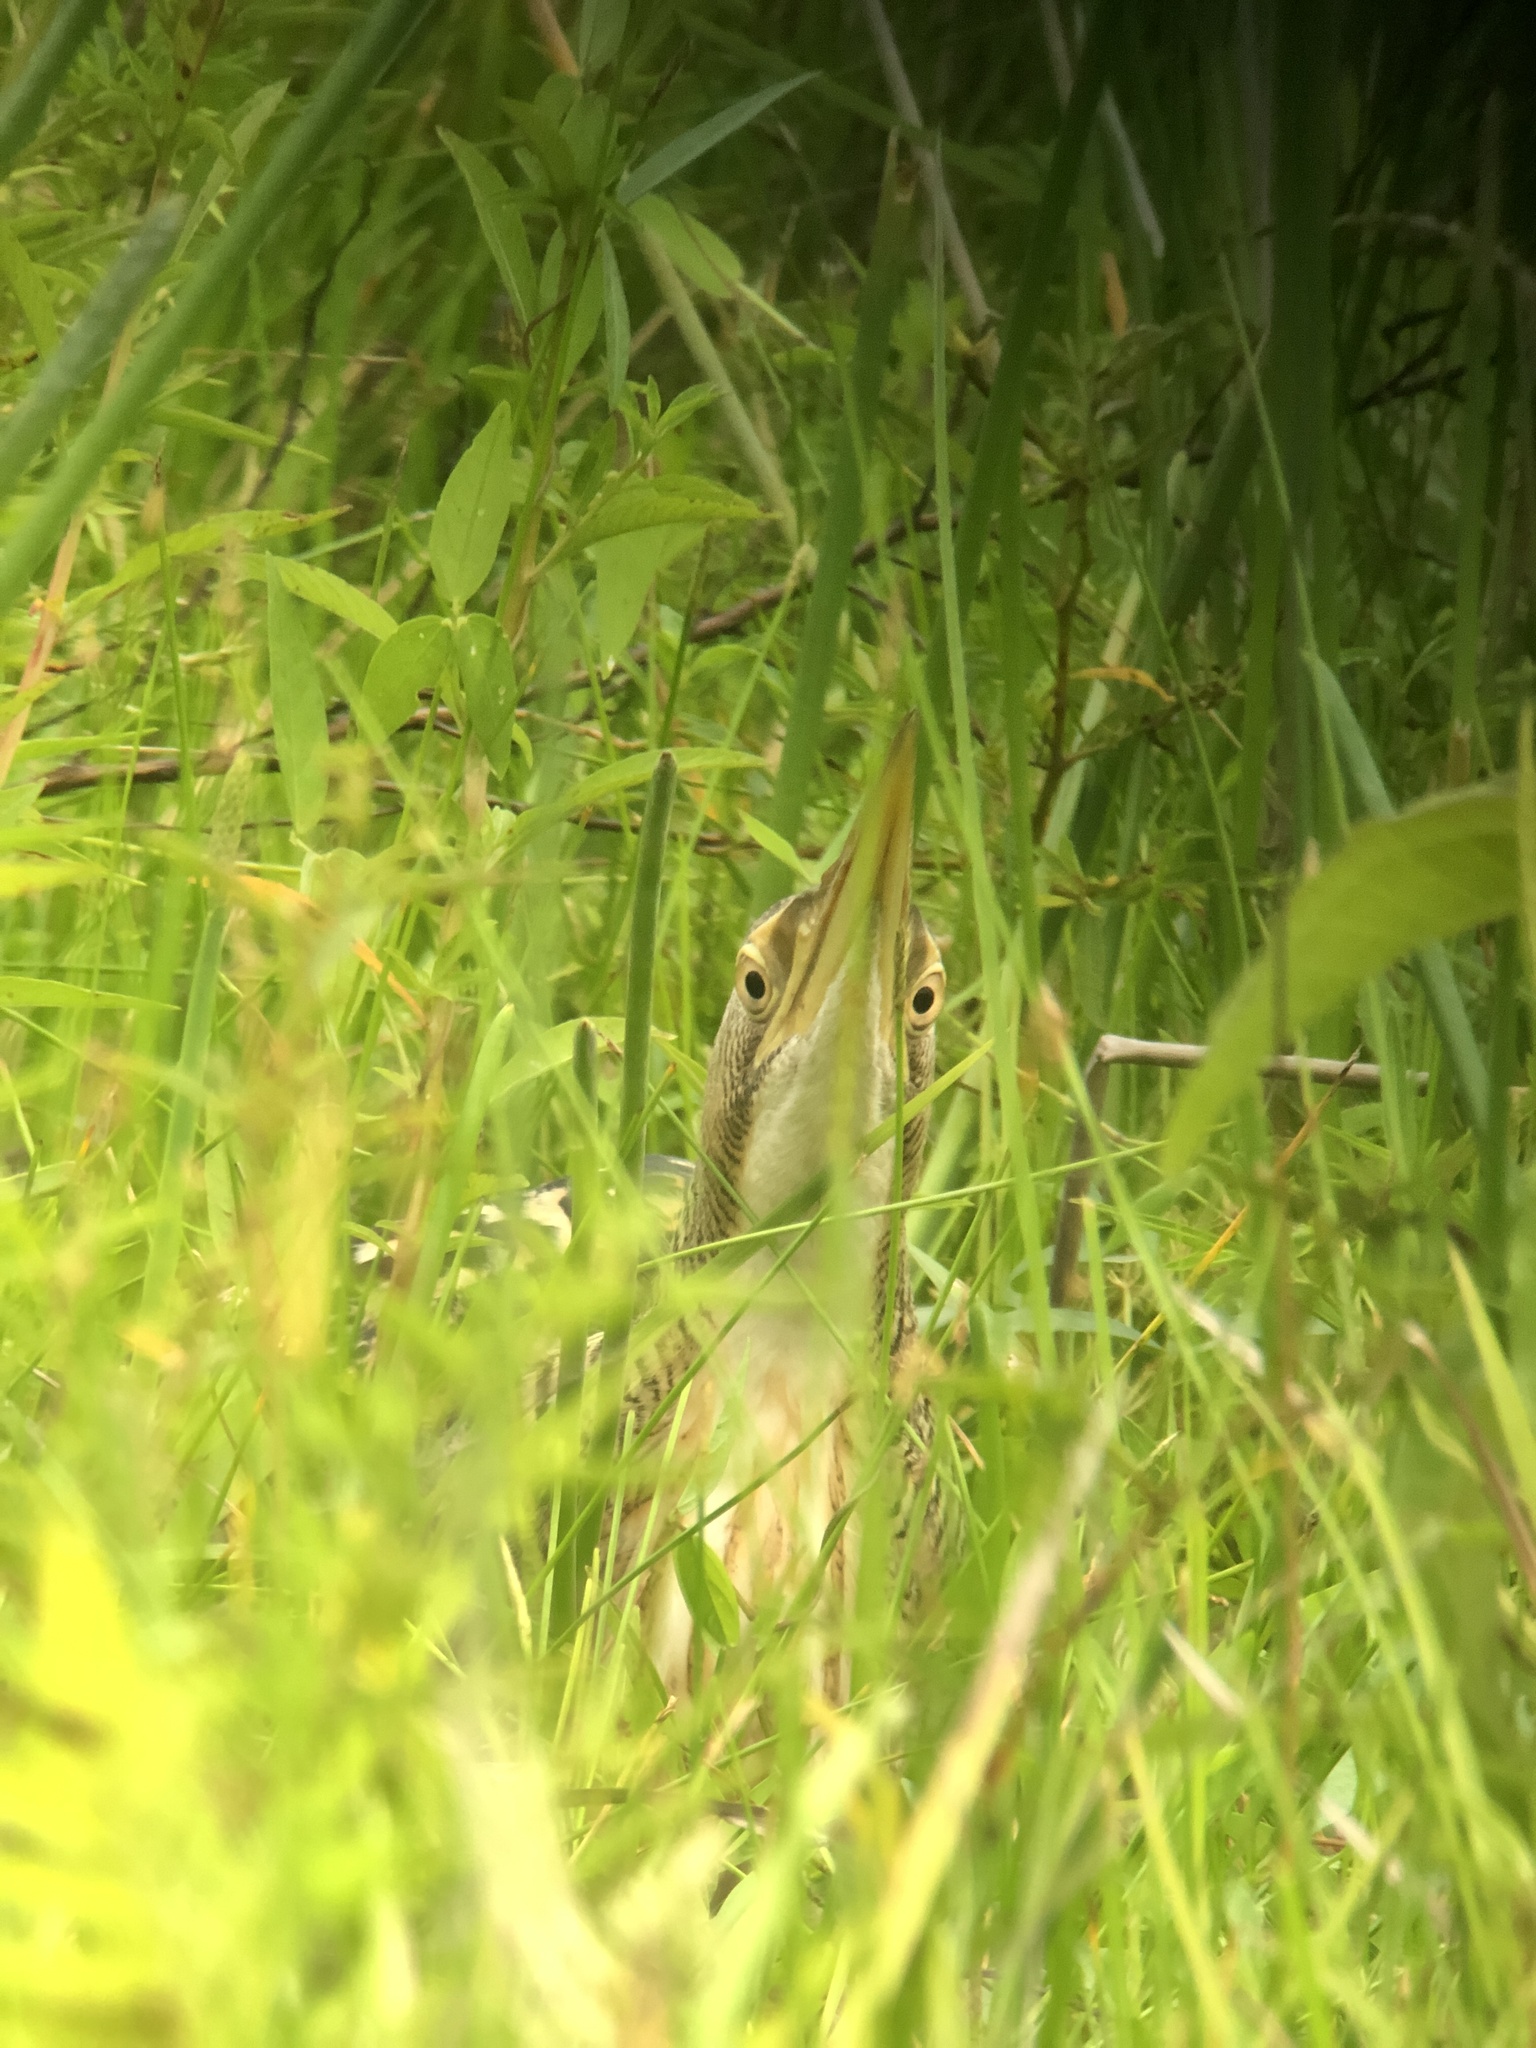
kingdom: Animalia
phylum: Chordata
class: Aves
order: Pelecaniformes
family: Ardeidae
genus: Botaurus
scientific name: Botaurus pinnatus
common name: Pinnated bittern
